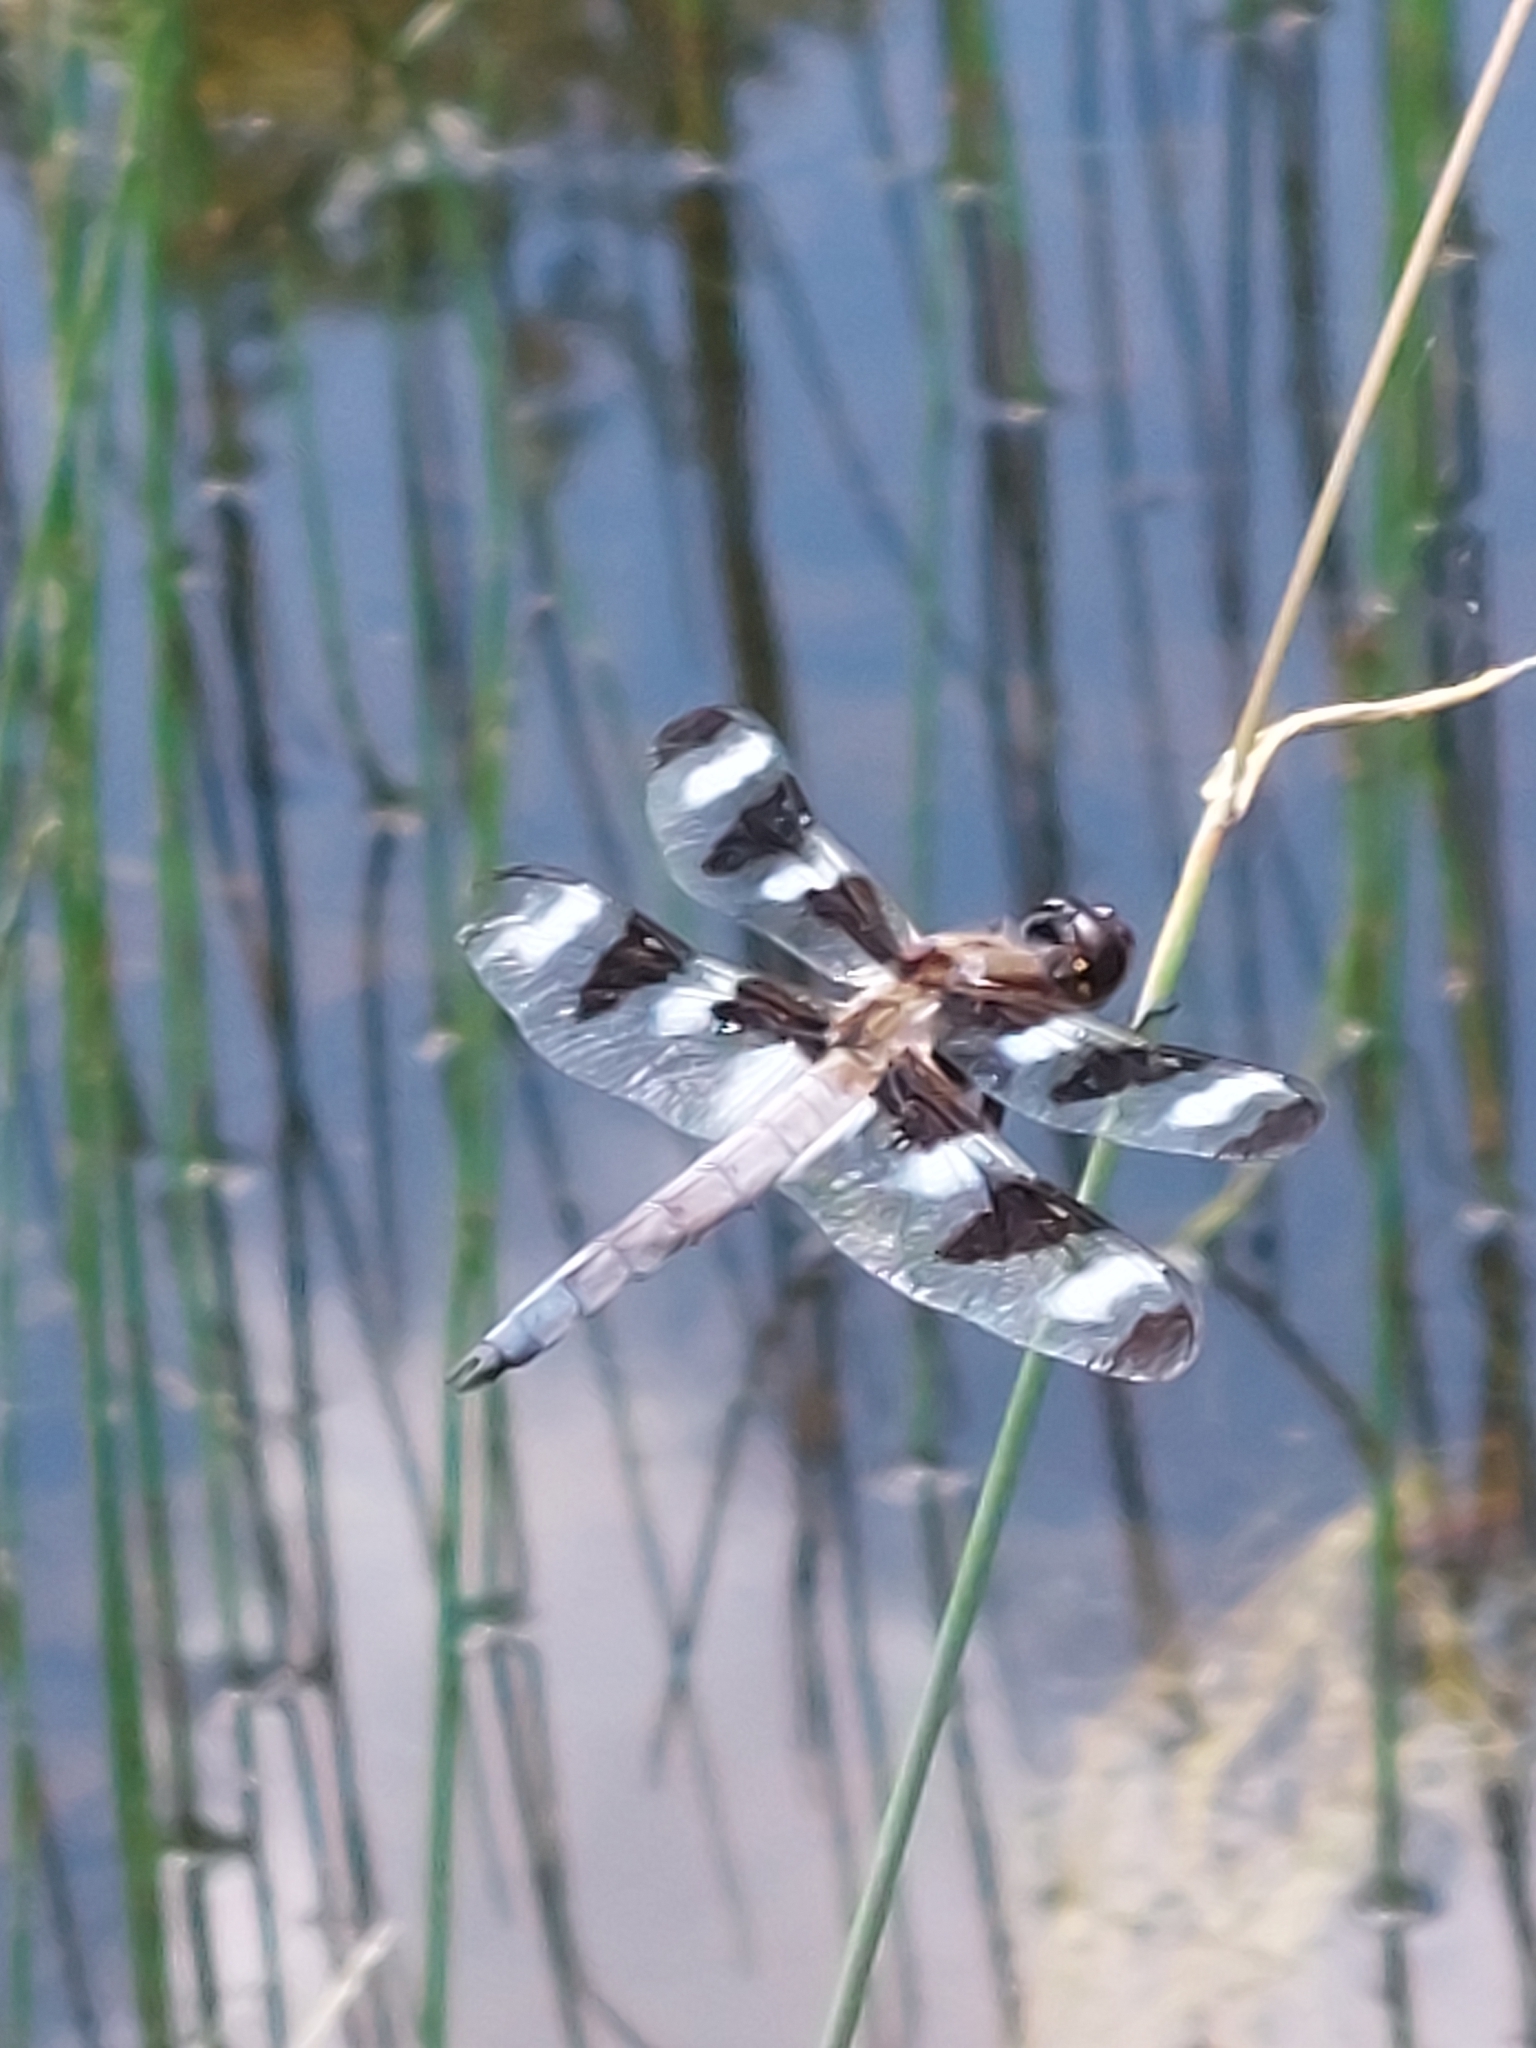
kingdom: Animalia
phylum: Arthropoda
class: Insecta
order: Odonata
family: Libellulidae
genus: Libellula
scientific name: Libellula pulchella
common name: Twelve-spotted skimmer
